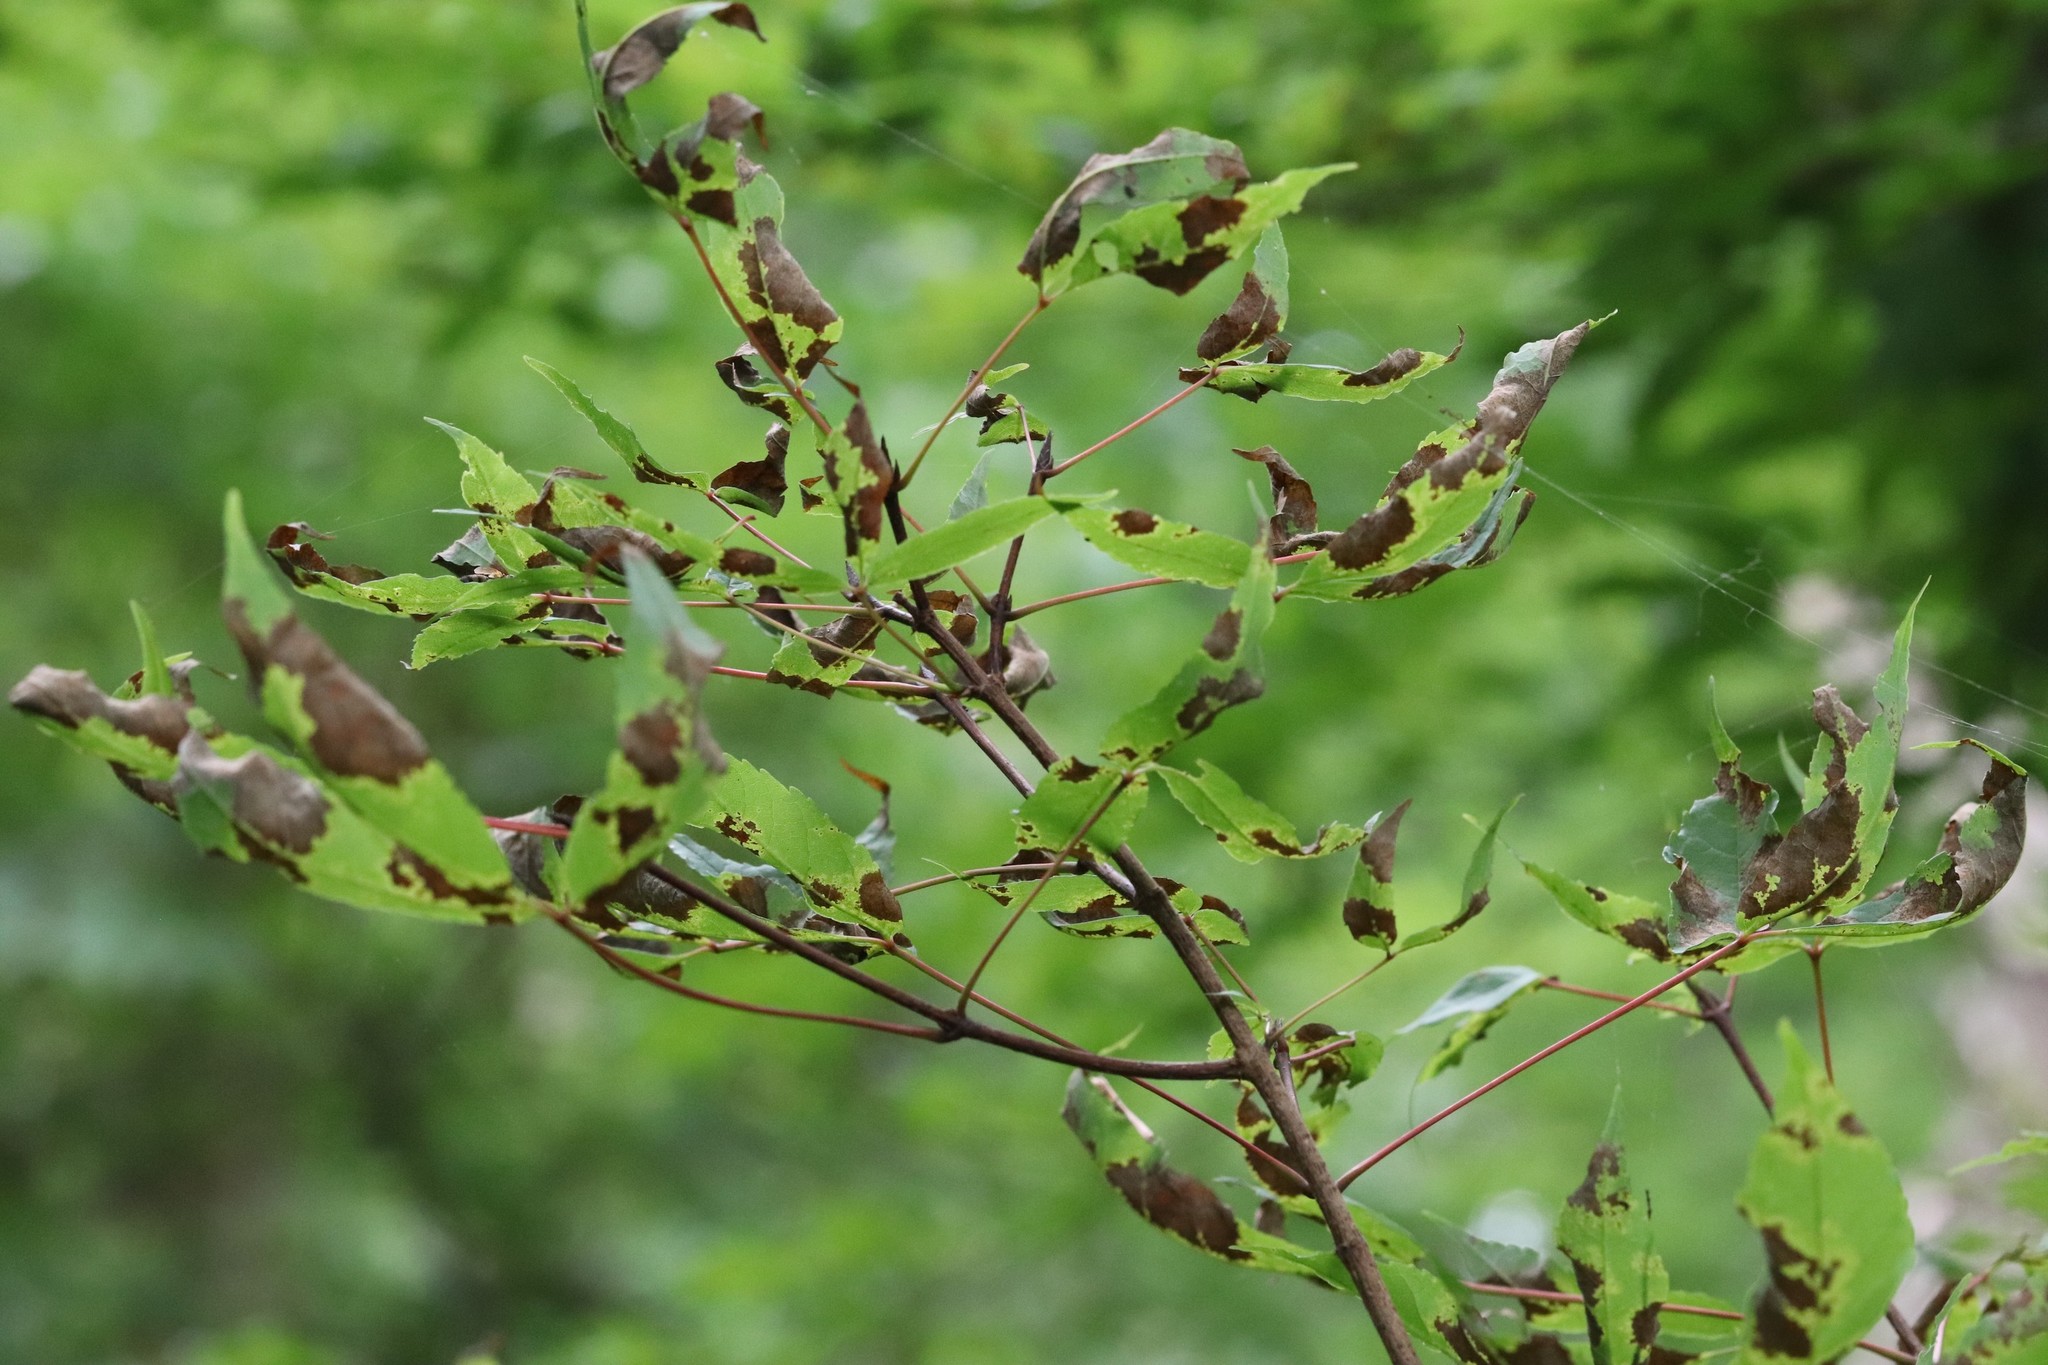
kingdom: Plantae
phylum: Tracheophyta
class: Magnoliopsida
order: Sapindales
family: Sapindaceae
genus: Acer
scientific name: Acer mandshuricum
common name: Manchurian maple
